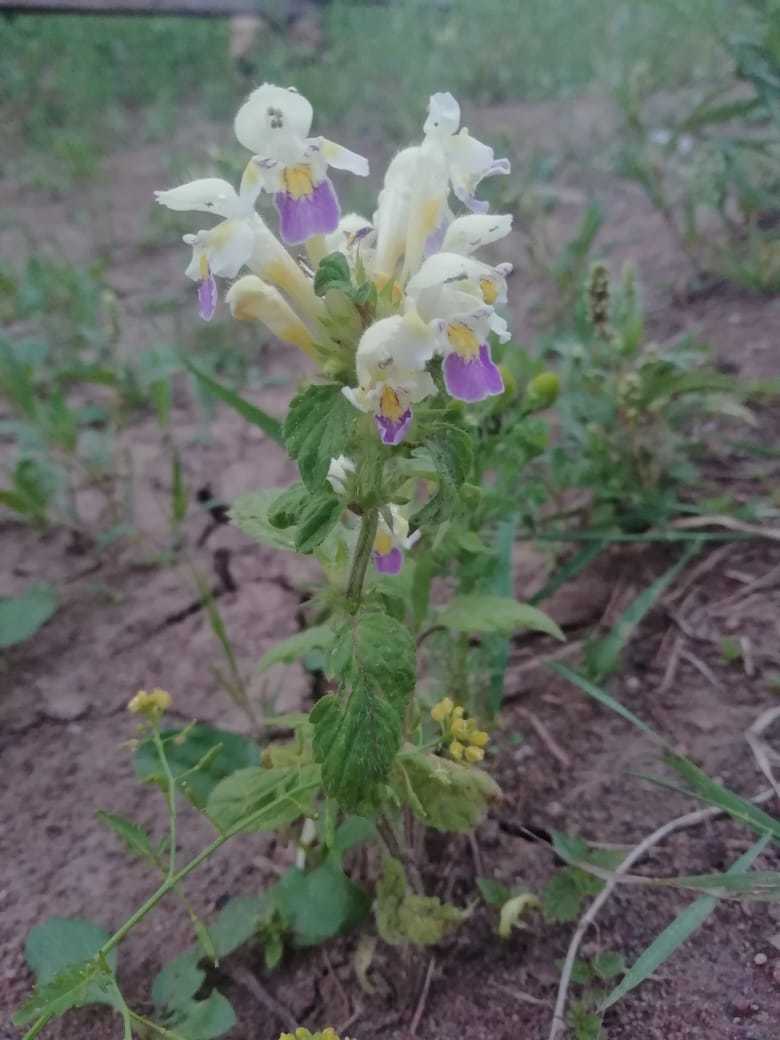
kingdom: Plantae
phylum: Tracheophyta
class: Magnoliopsida
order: Lamiales
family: Lamiaceae
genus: Galeopsis
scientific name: Galeopsis speciosa
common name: Large-flowered hemp-nettle
